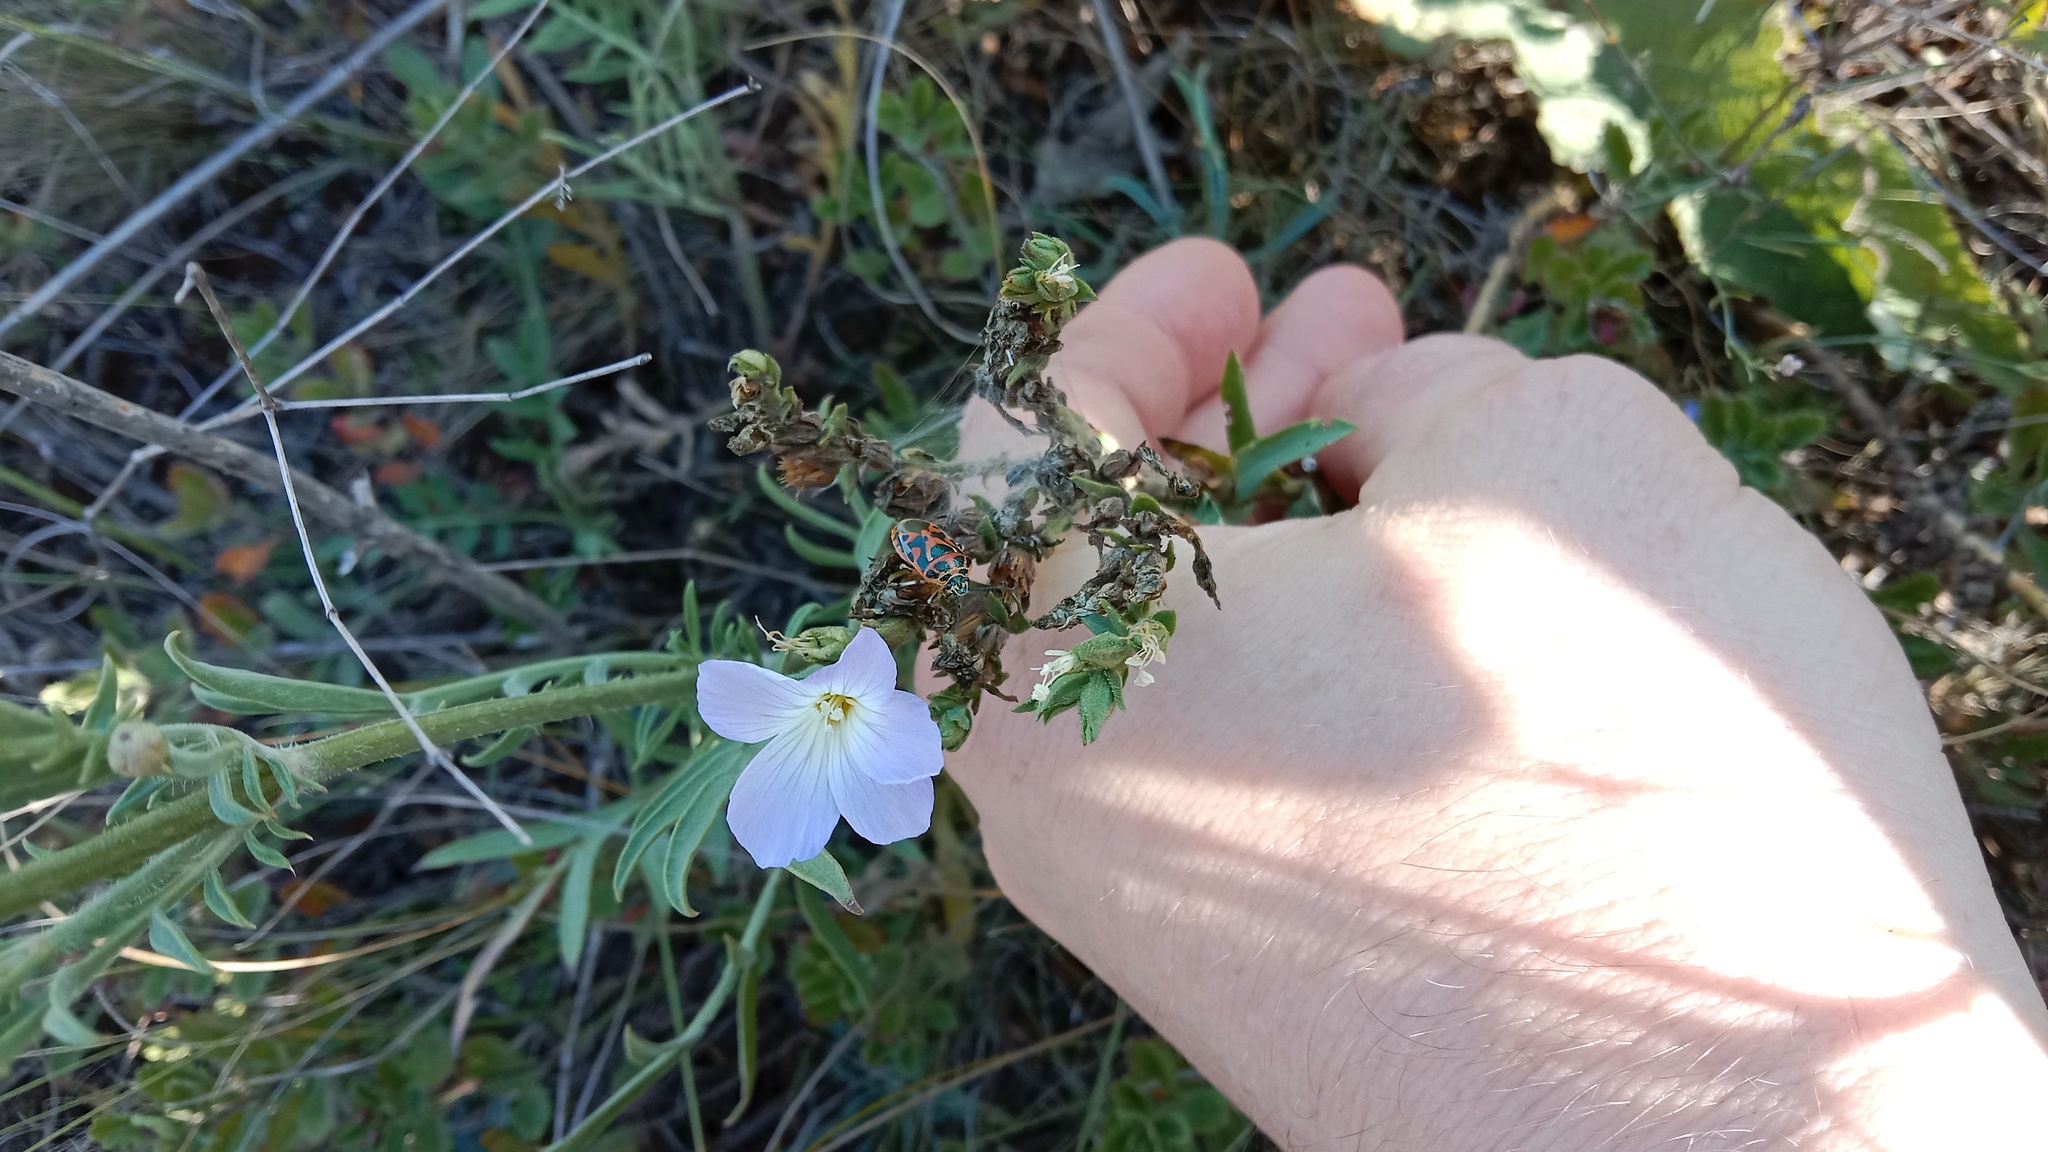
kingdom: Animalia
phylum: Arthropoda
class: Insecta
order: Hemiptera
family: Pentatomidae
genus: Eurydema
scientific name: Eurydema ornata
